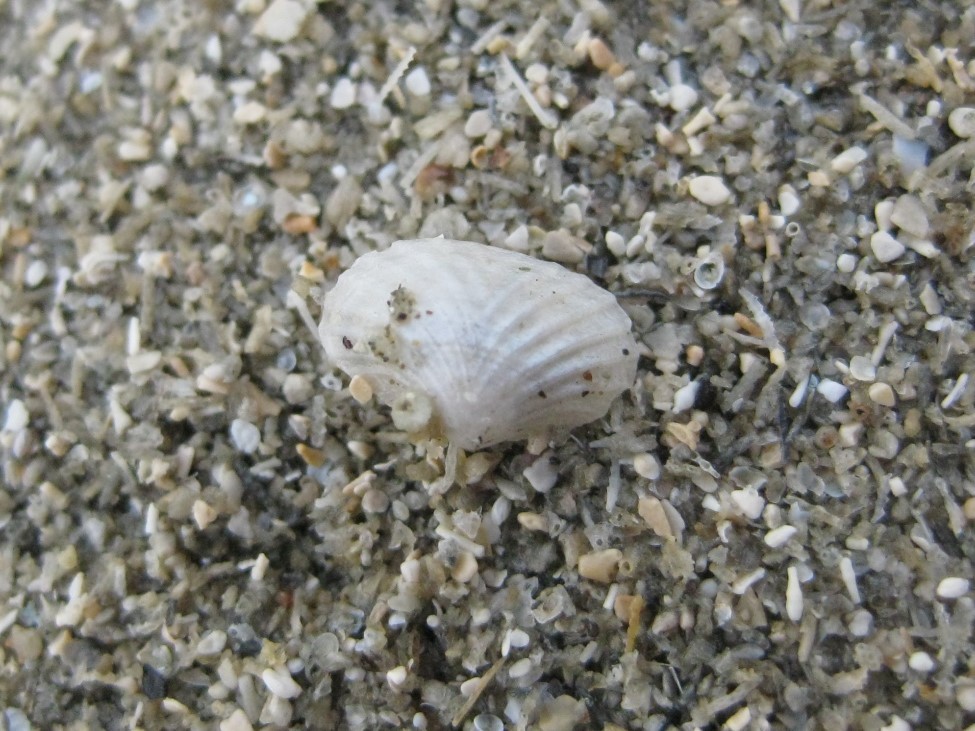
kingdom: Animalia
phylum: Mollusca
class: Bivalvia
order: Galeommatida
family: Lasaeidae
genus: Myllita
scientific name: Myllita stowei
